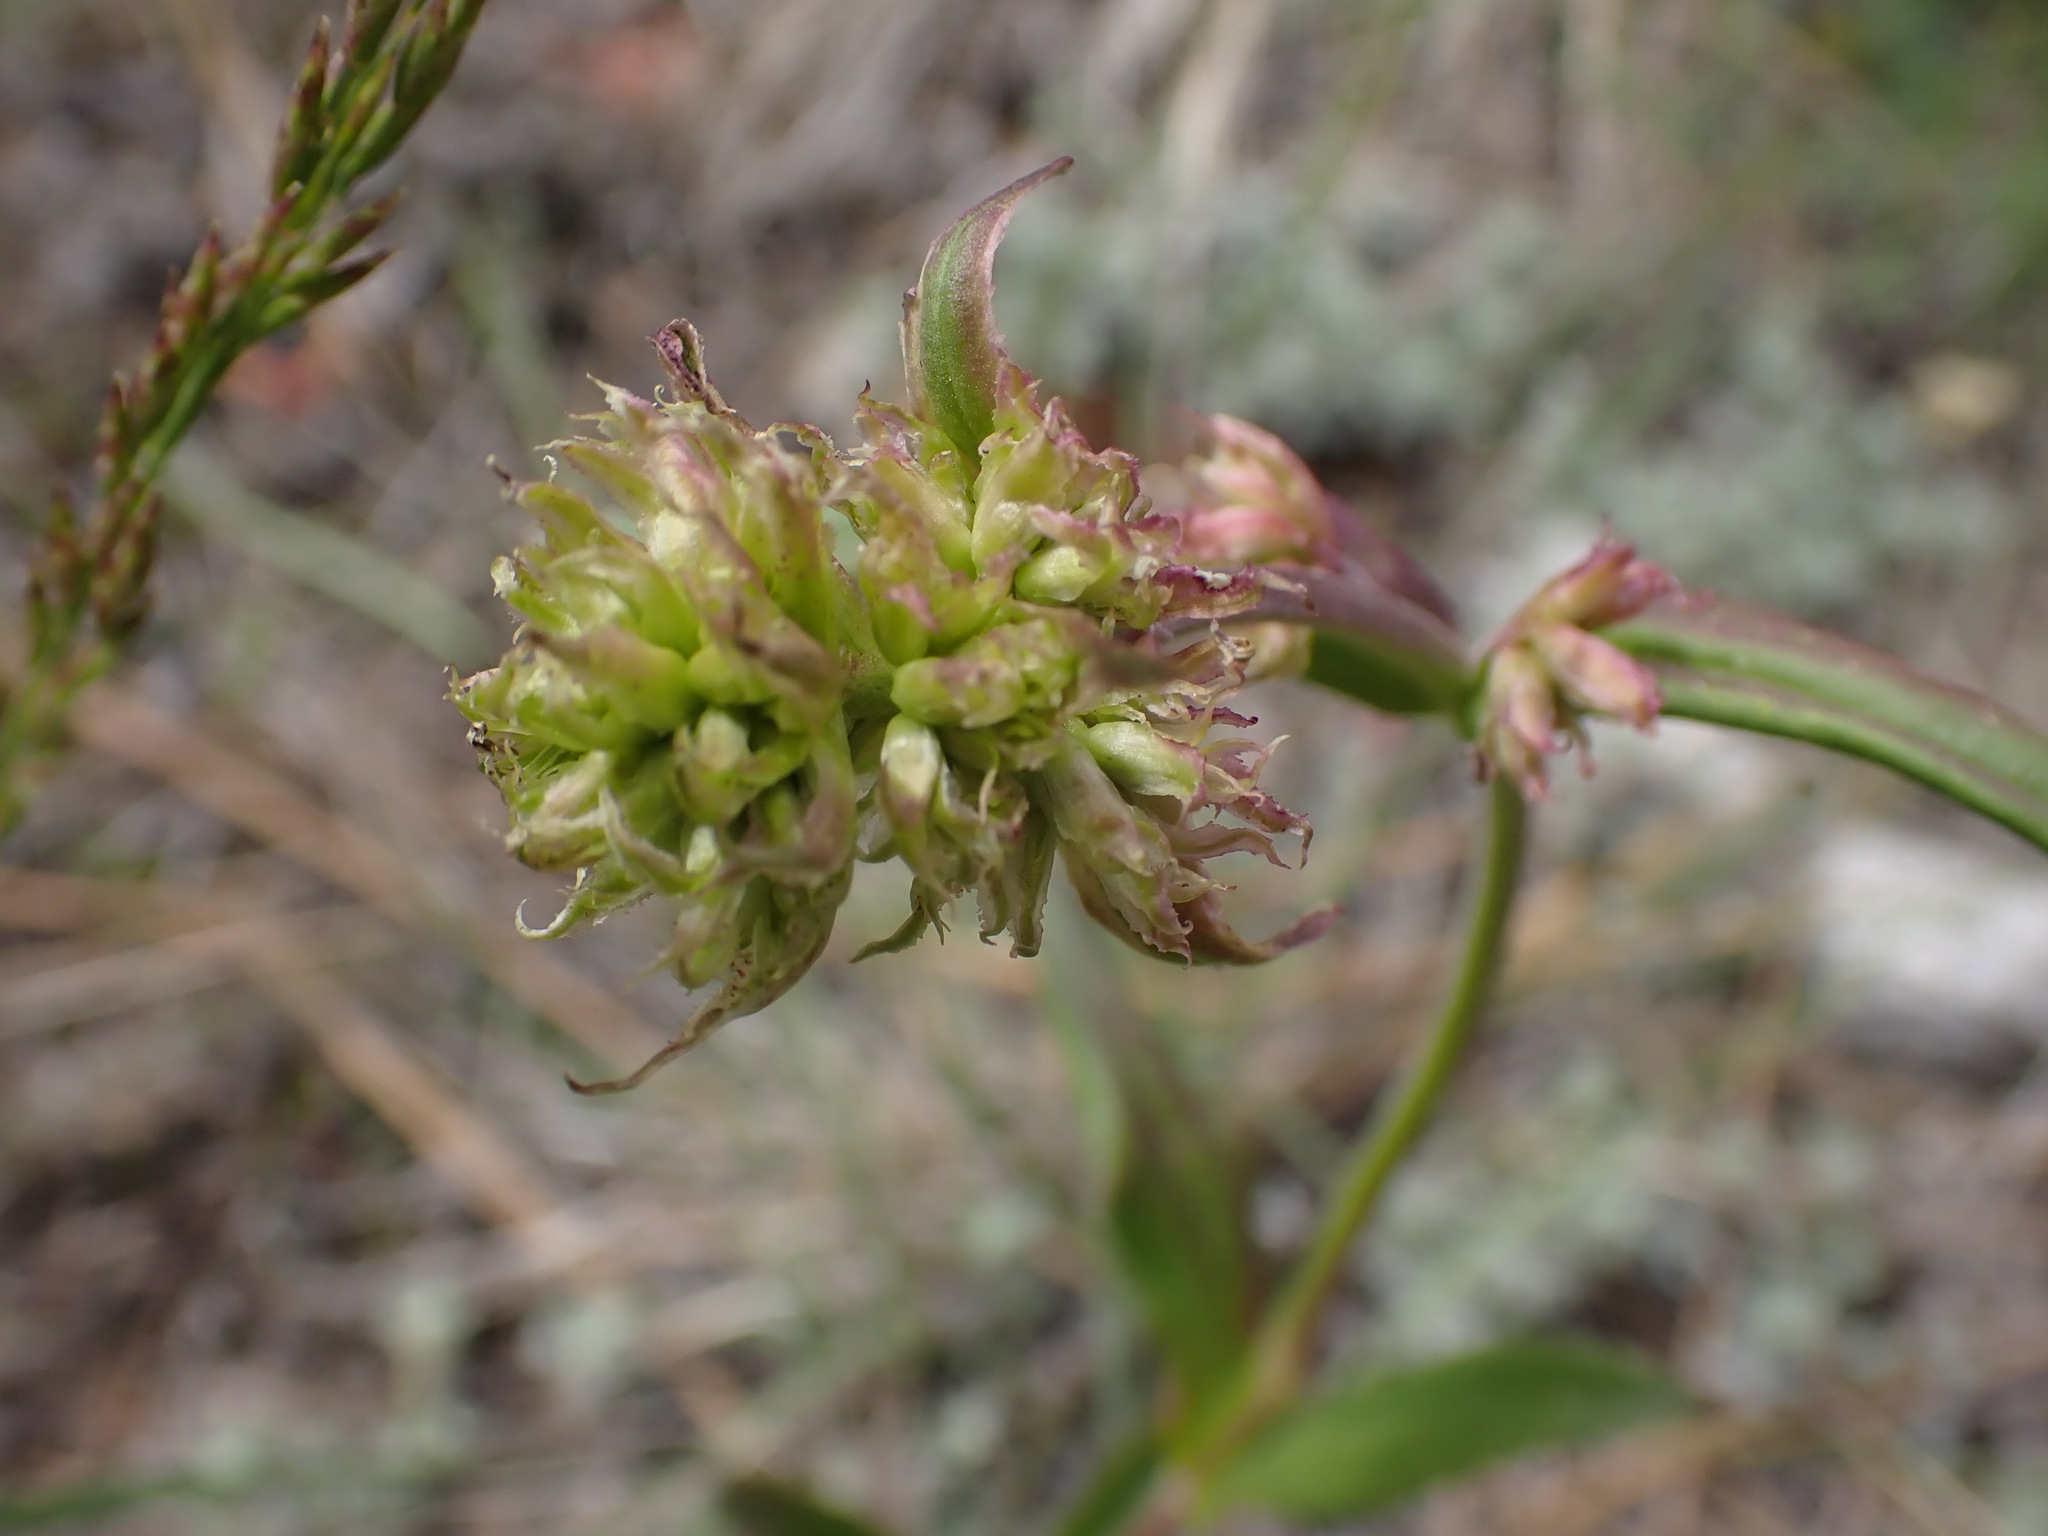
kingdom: Plantae
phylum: Tracheophyta
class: Magnoliopsida
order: Lamiales
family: Plantaginaceae
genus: Penstemon
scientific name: Penstemon confertus
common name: Lesser yellow beardtongue
